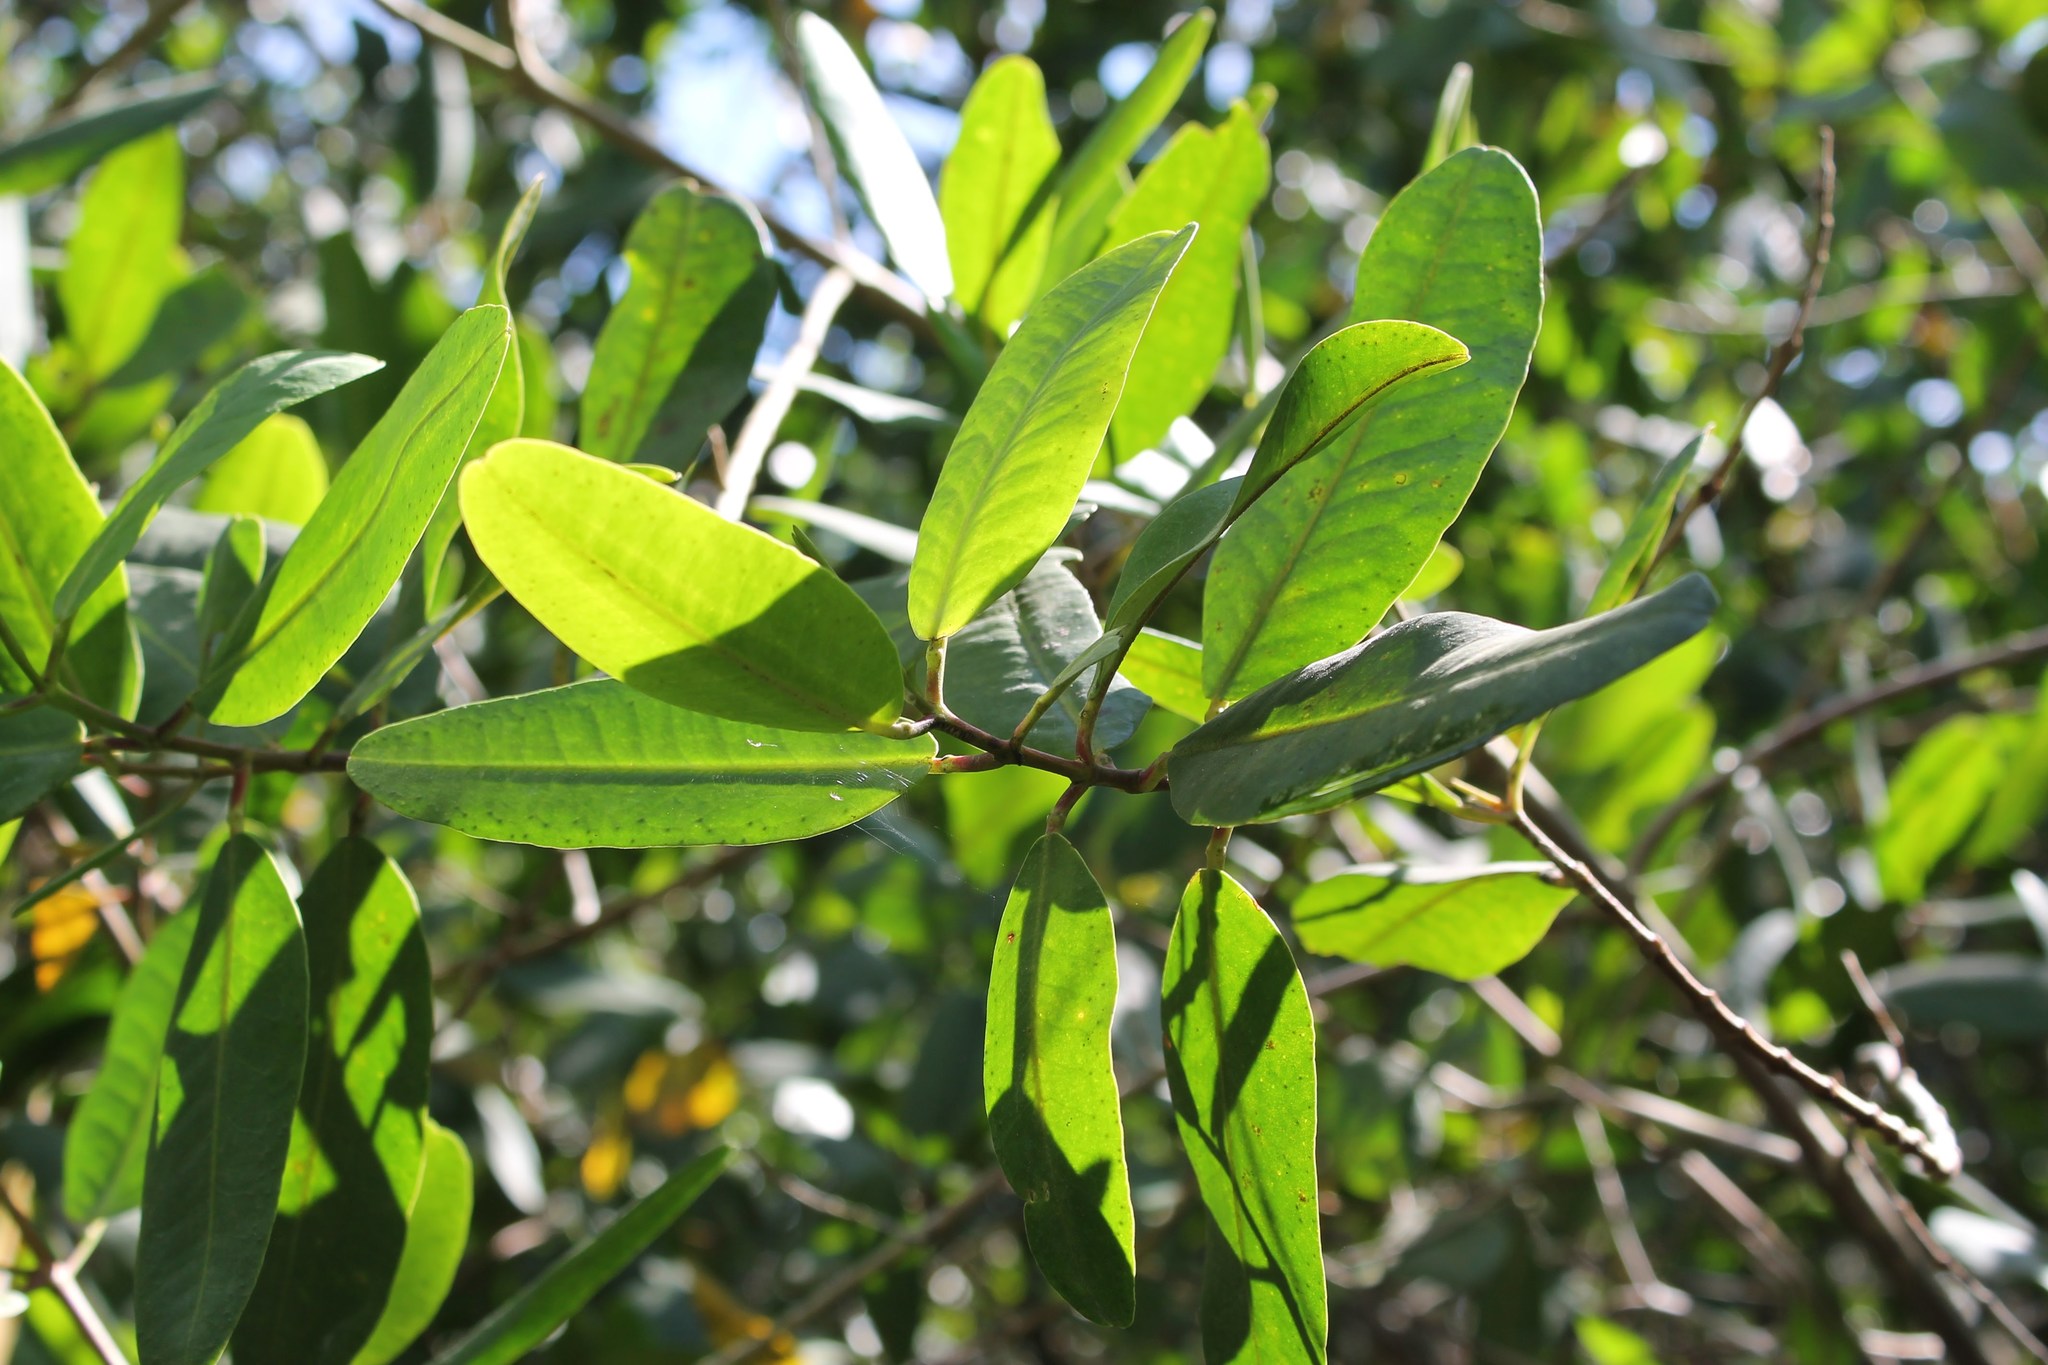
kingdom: Plantae
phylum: Tracheophyta
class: Magnoliopsida
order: Myrtales
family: Combretaceae
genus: Laguncularia
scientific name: Laguncularia racemosa
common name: White mangrove
